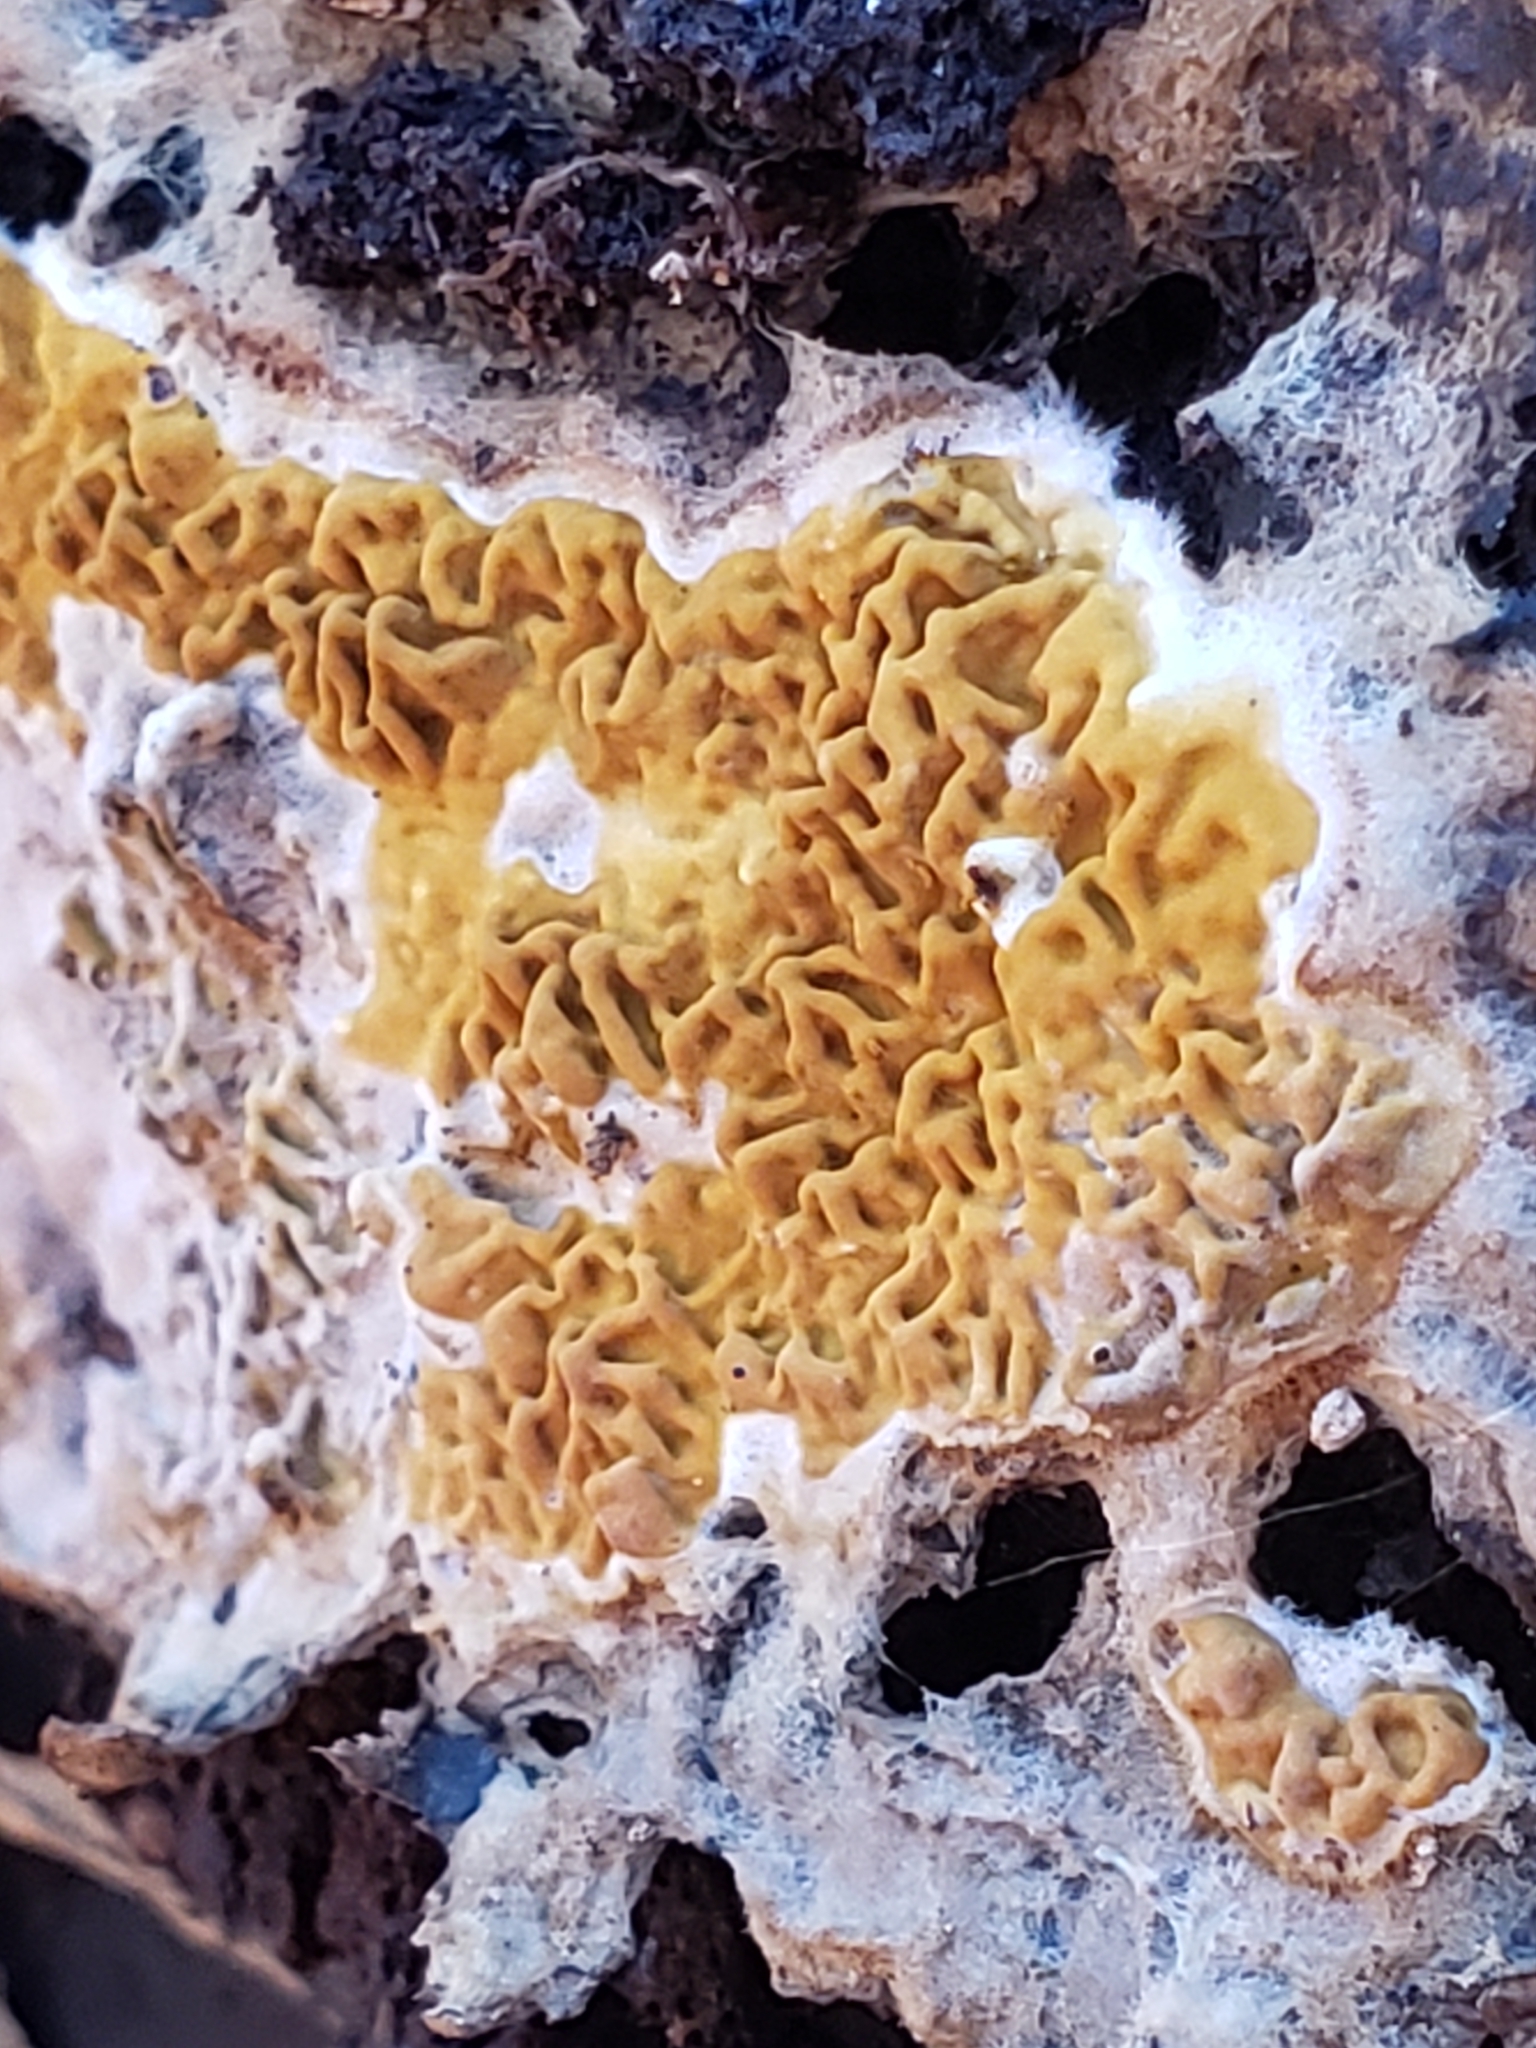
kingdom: Fungi
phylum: Basidiomycota
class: Agaricomycetes
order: Boletales
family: Serpulaceae
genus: Serpula
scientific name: Serpula himantioides
